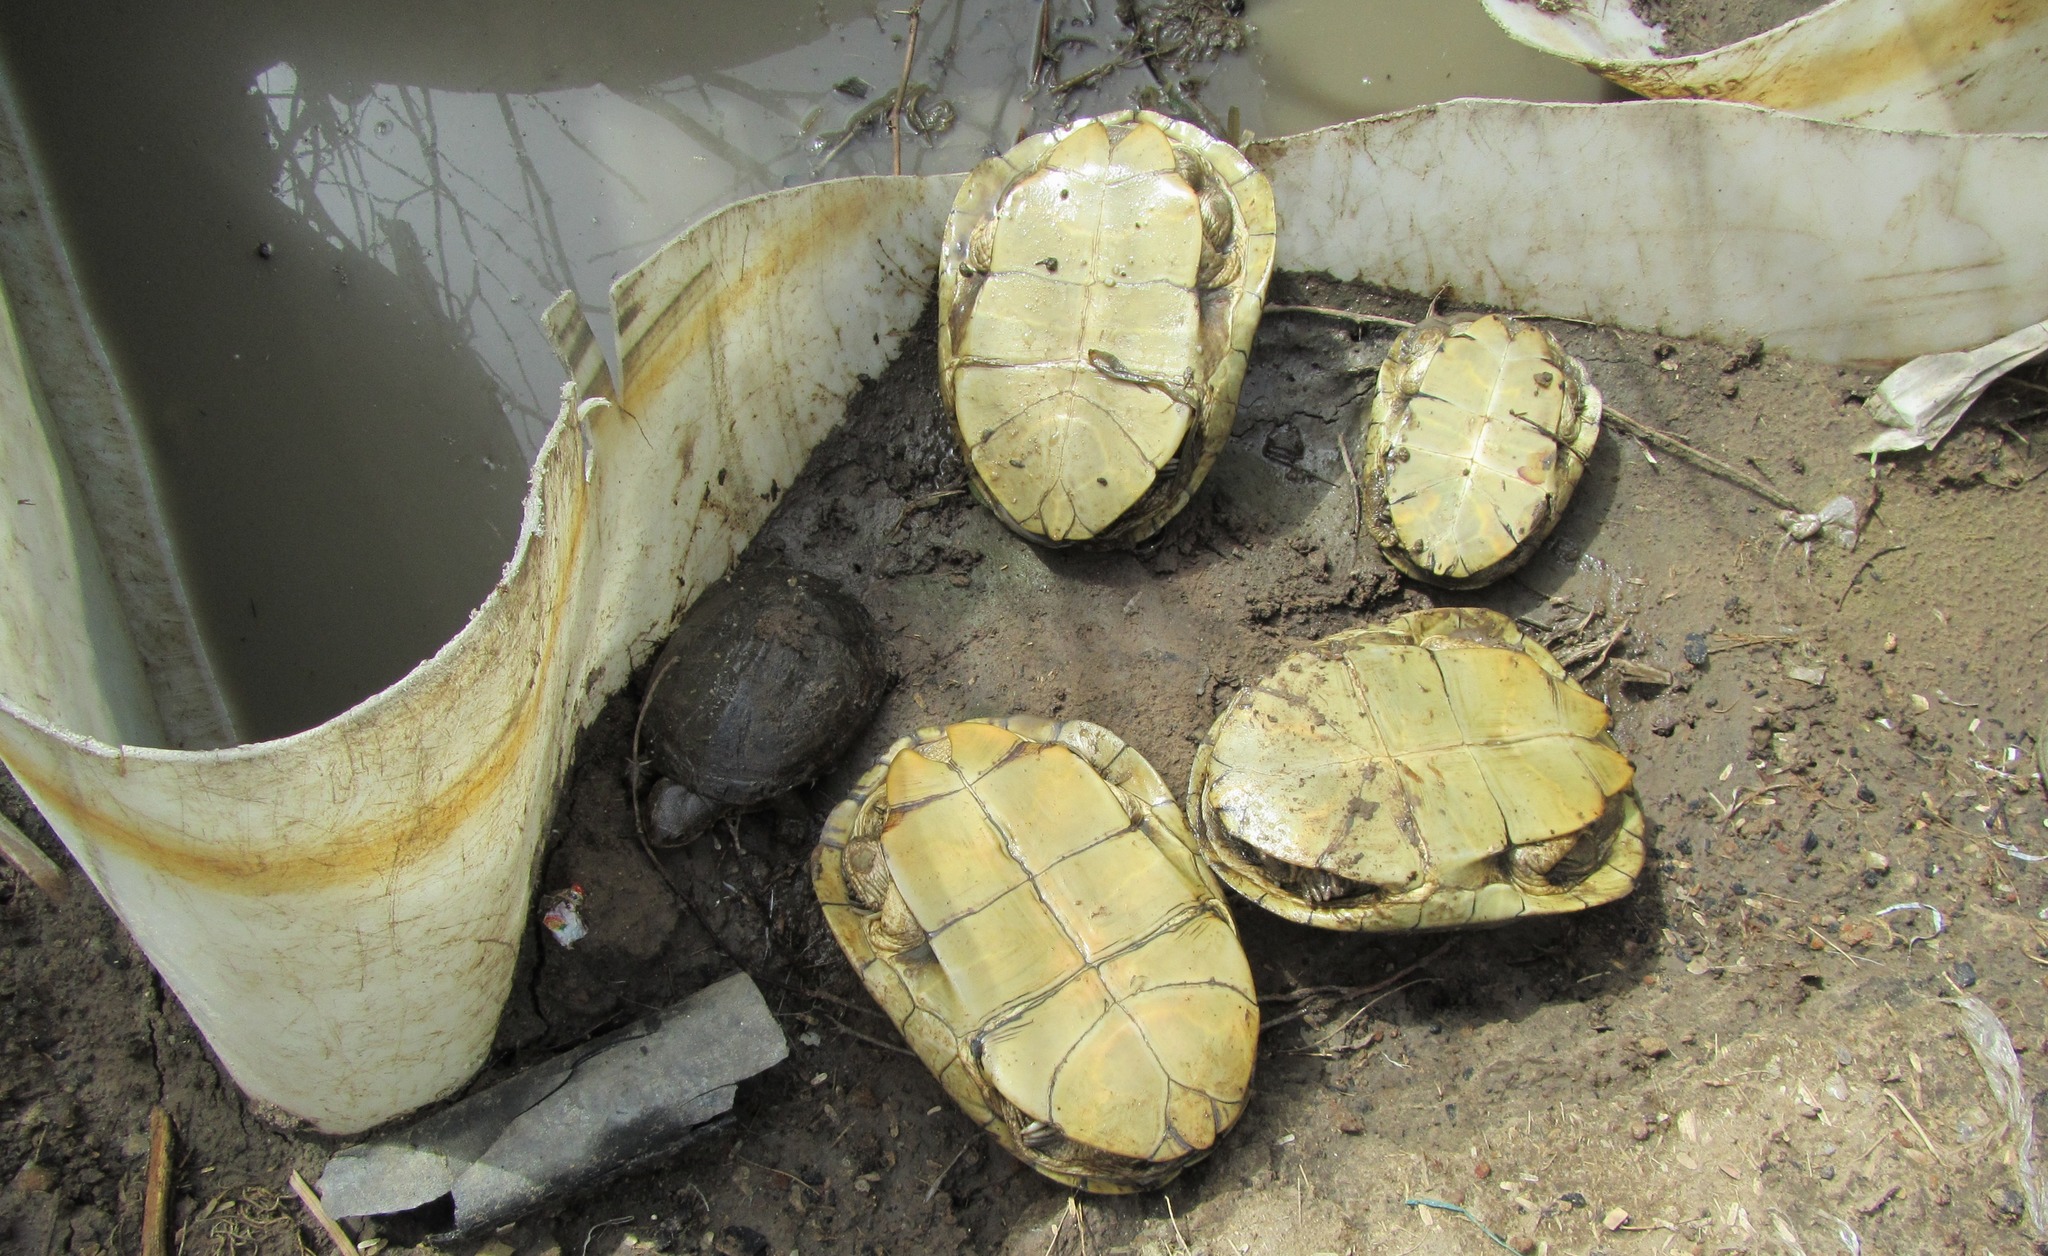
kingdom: Animalia
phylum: Chordata
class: Testudines
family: Pelomedusidae
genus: Pelusios
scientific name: Pelusios adansonii
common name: Adansons mud turtle
